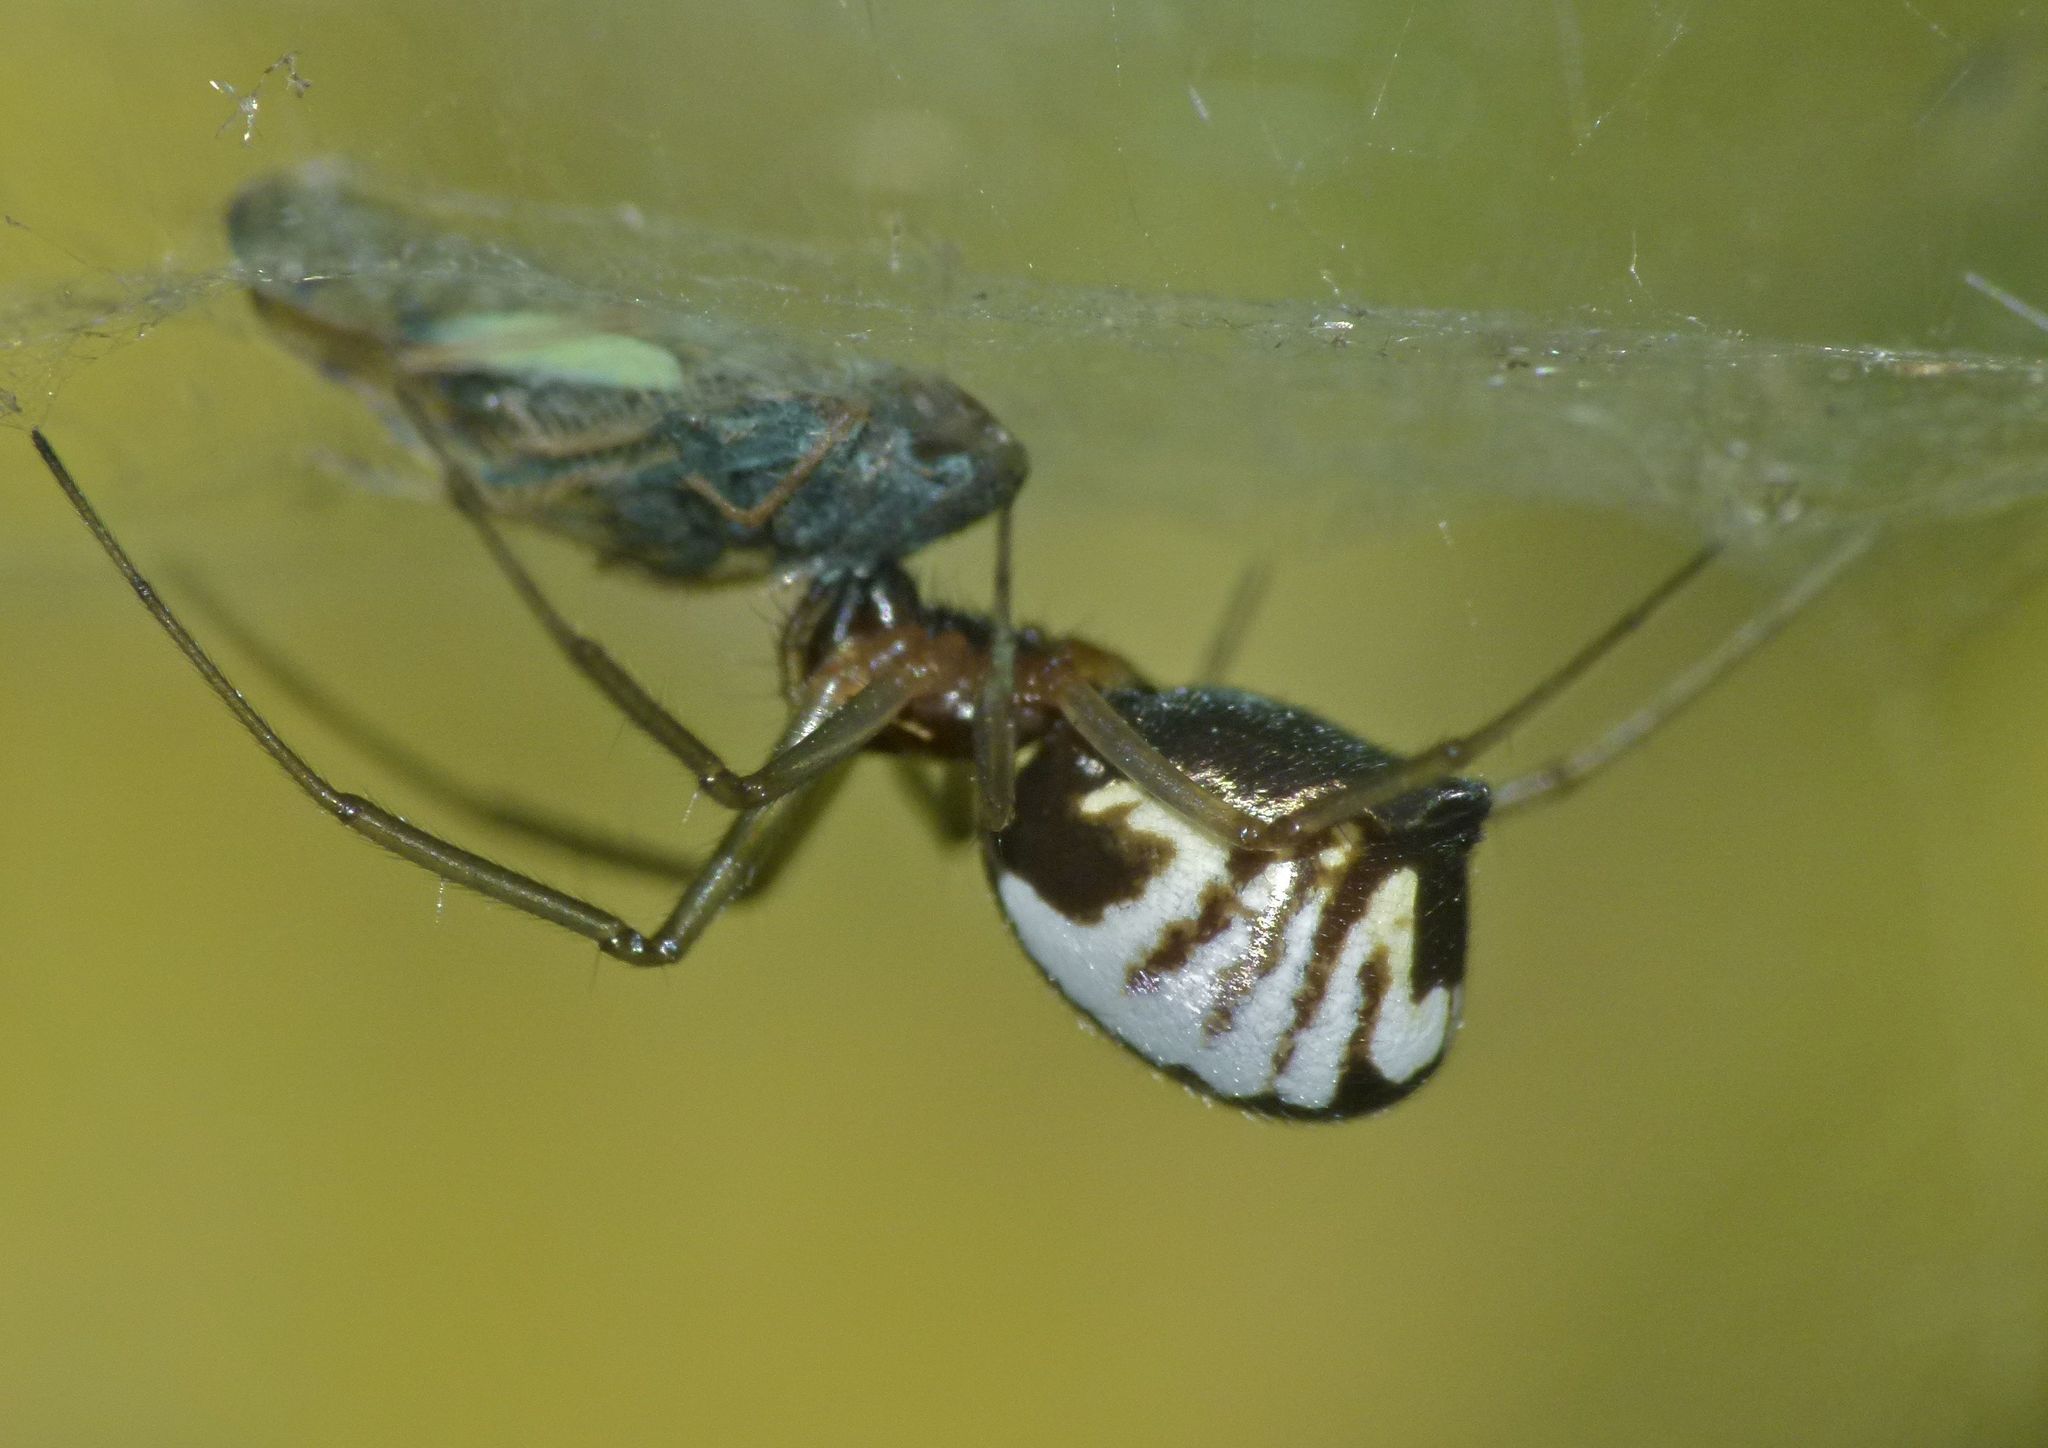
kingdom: Animalia
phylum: Arthropoda
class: Arachnida
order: Araneae
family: Linyphiidae
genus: Frontinella
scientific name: Frontinella pyramitela
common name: Bowl-and-doily spider
